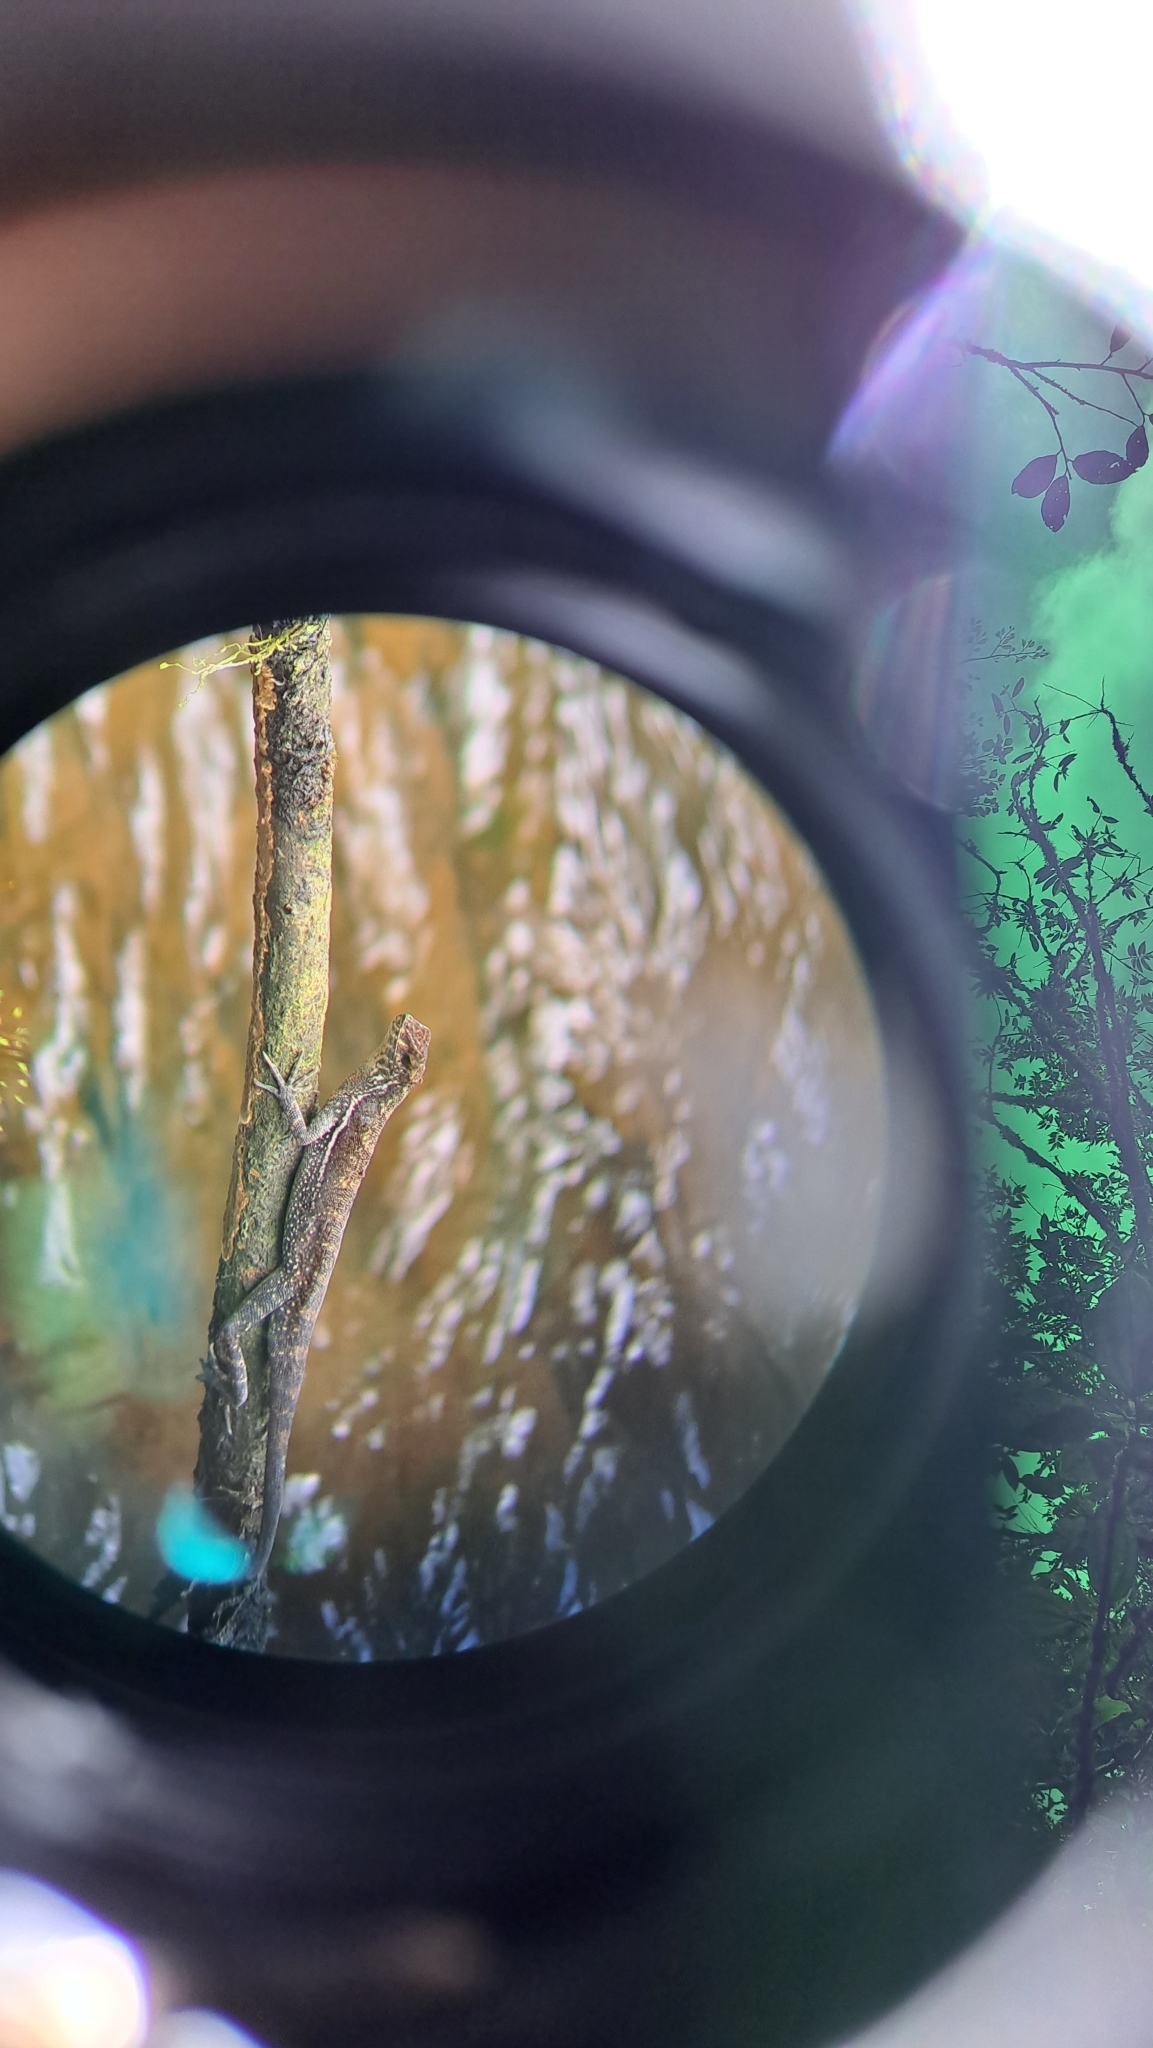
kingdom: Animalia
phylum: Chordata
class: Squamata
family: Dactyloidae
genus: Anolis
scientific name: Anolis oxylophus
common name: Stream anole
